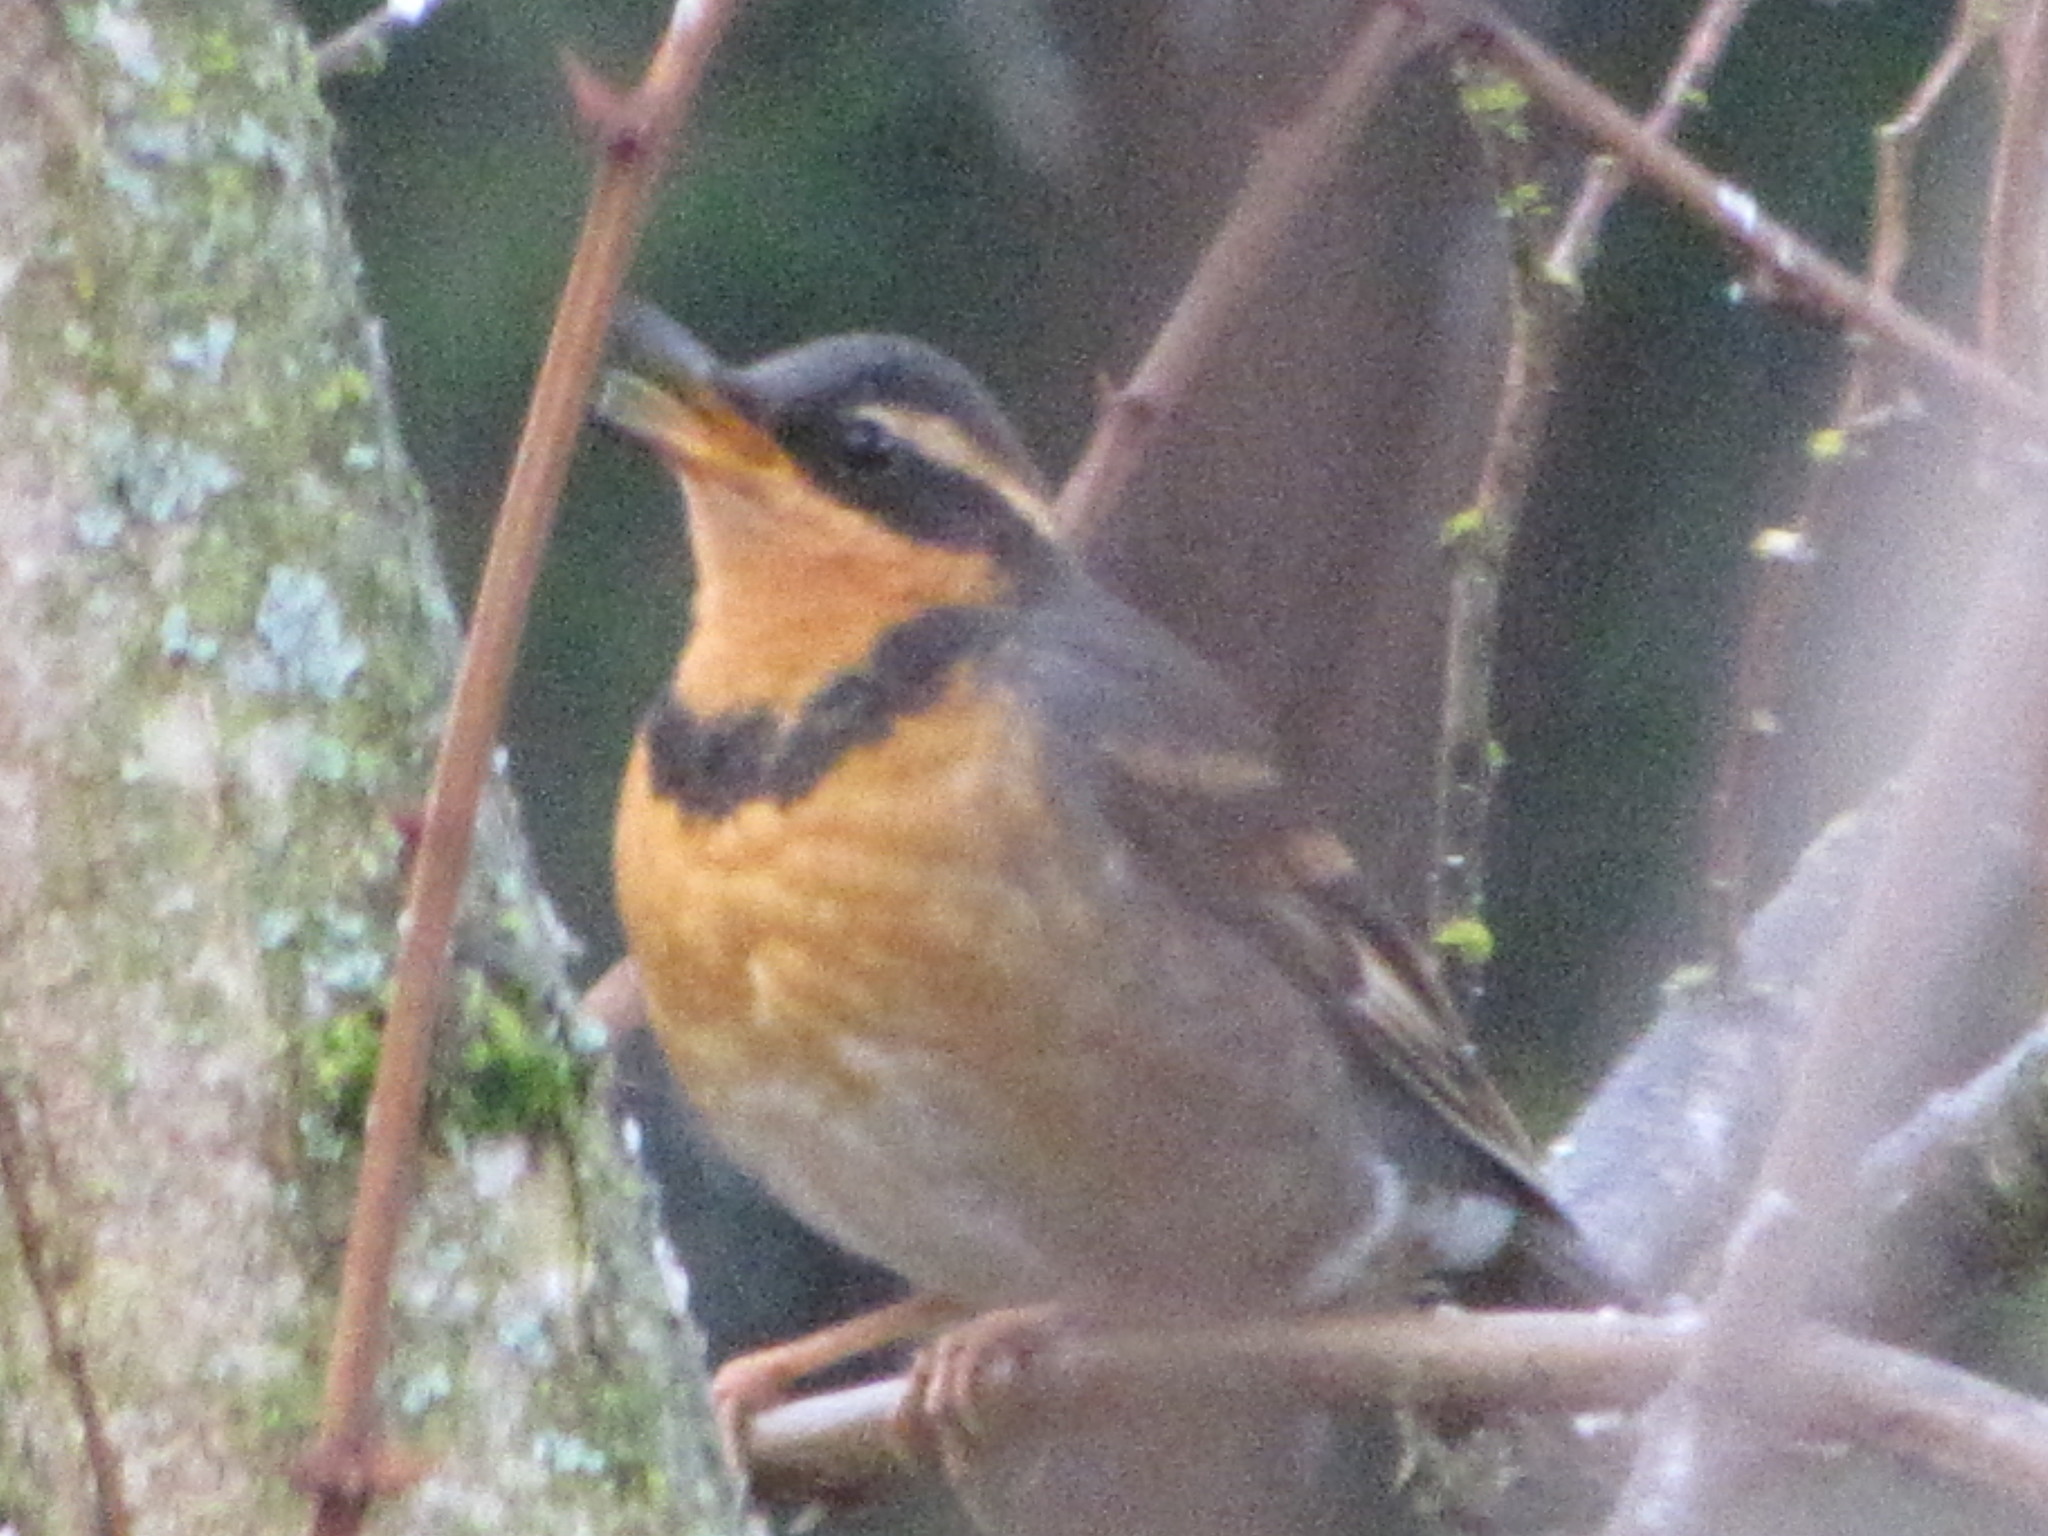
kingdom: Animalia
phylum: Chordata
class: Aves
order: Passeriformes
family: Turdidae
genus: Ixoreus
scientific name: Ixoreus naevius
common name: Varied thrush
